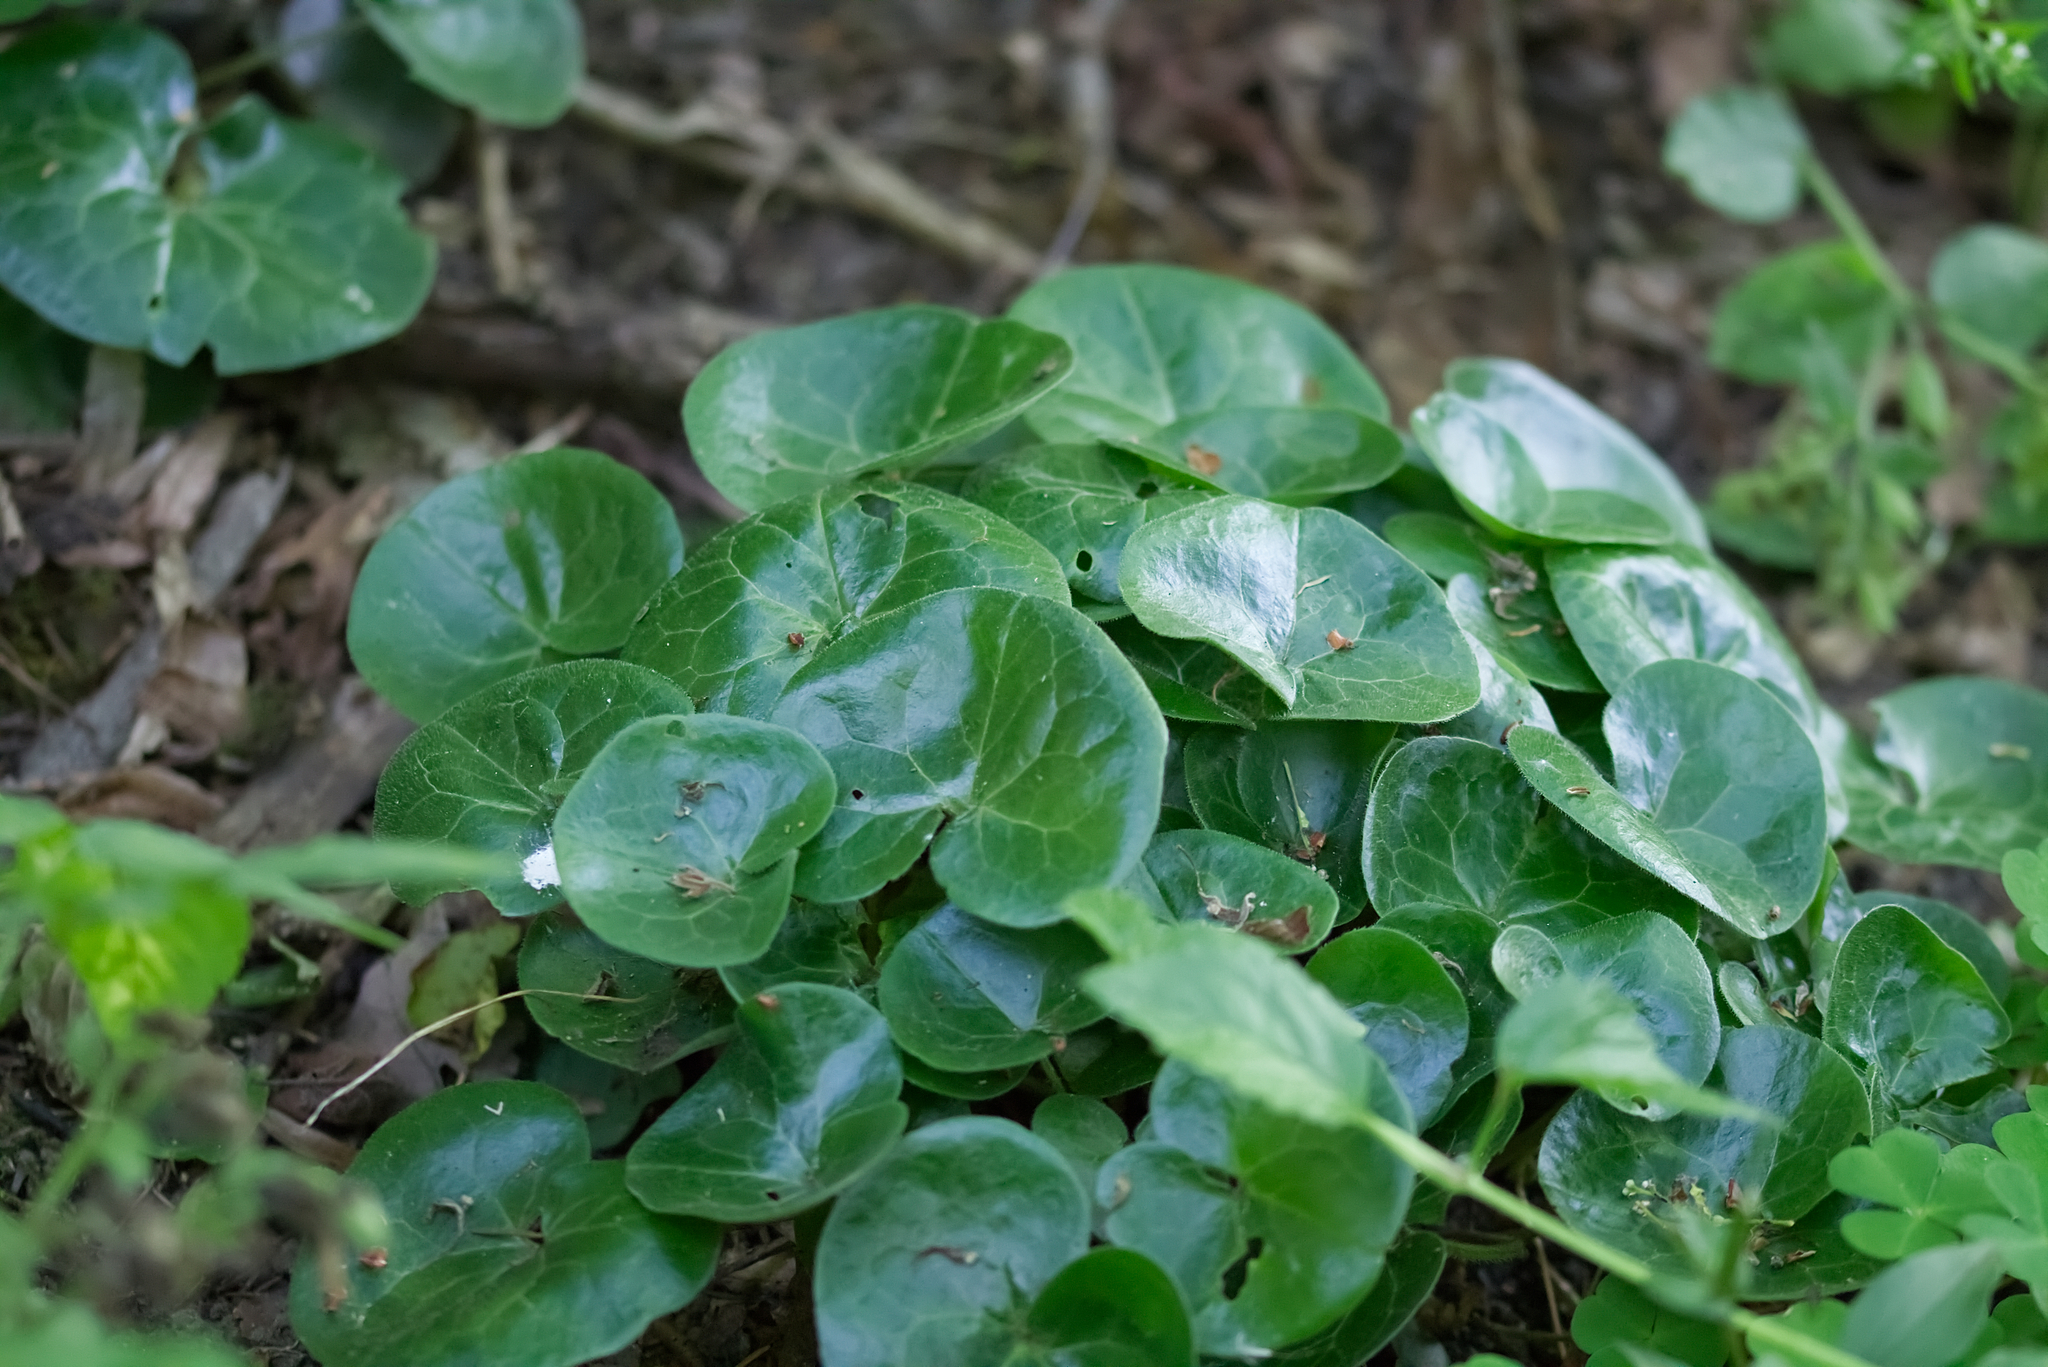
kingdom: Plantae
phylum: Tracheophyta
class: Magnoliopsida
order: Piperales
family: Aristolochiaceae
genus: Asarum
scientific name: Asarum europaeum
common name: Asarabacca
